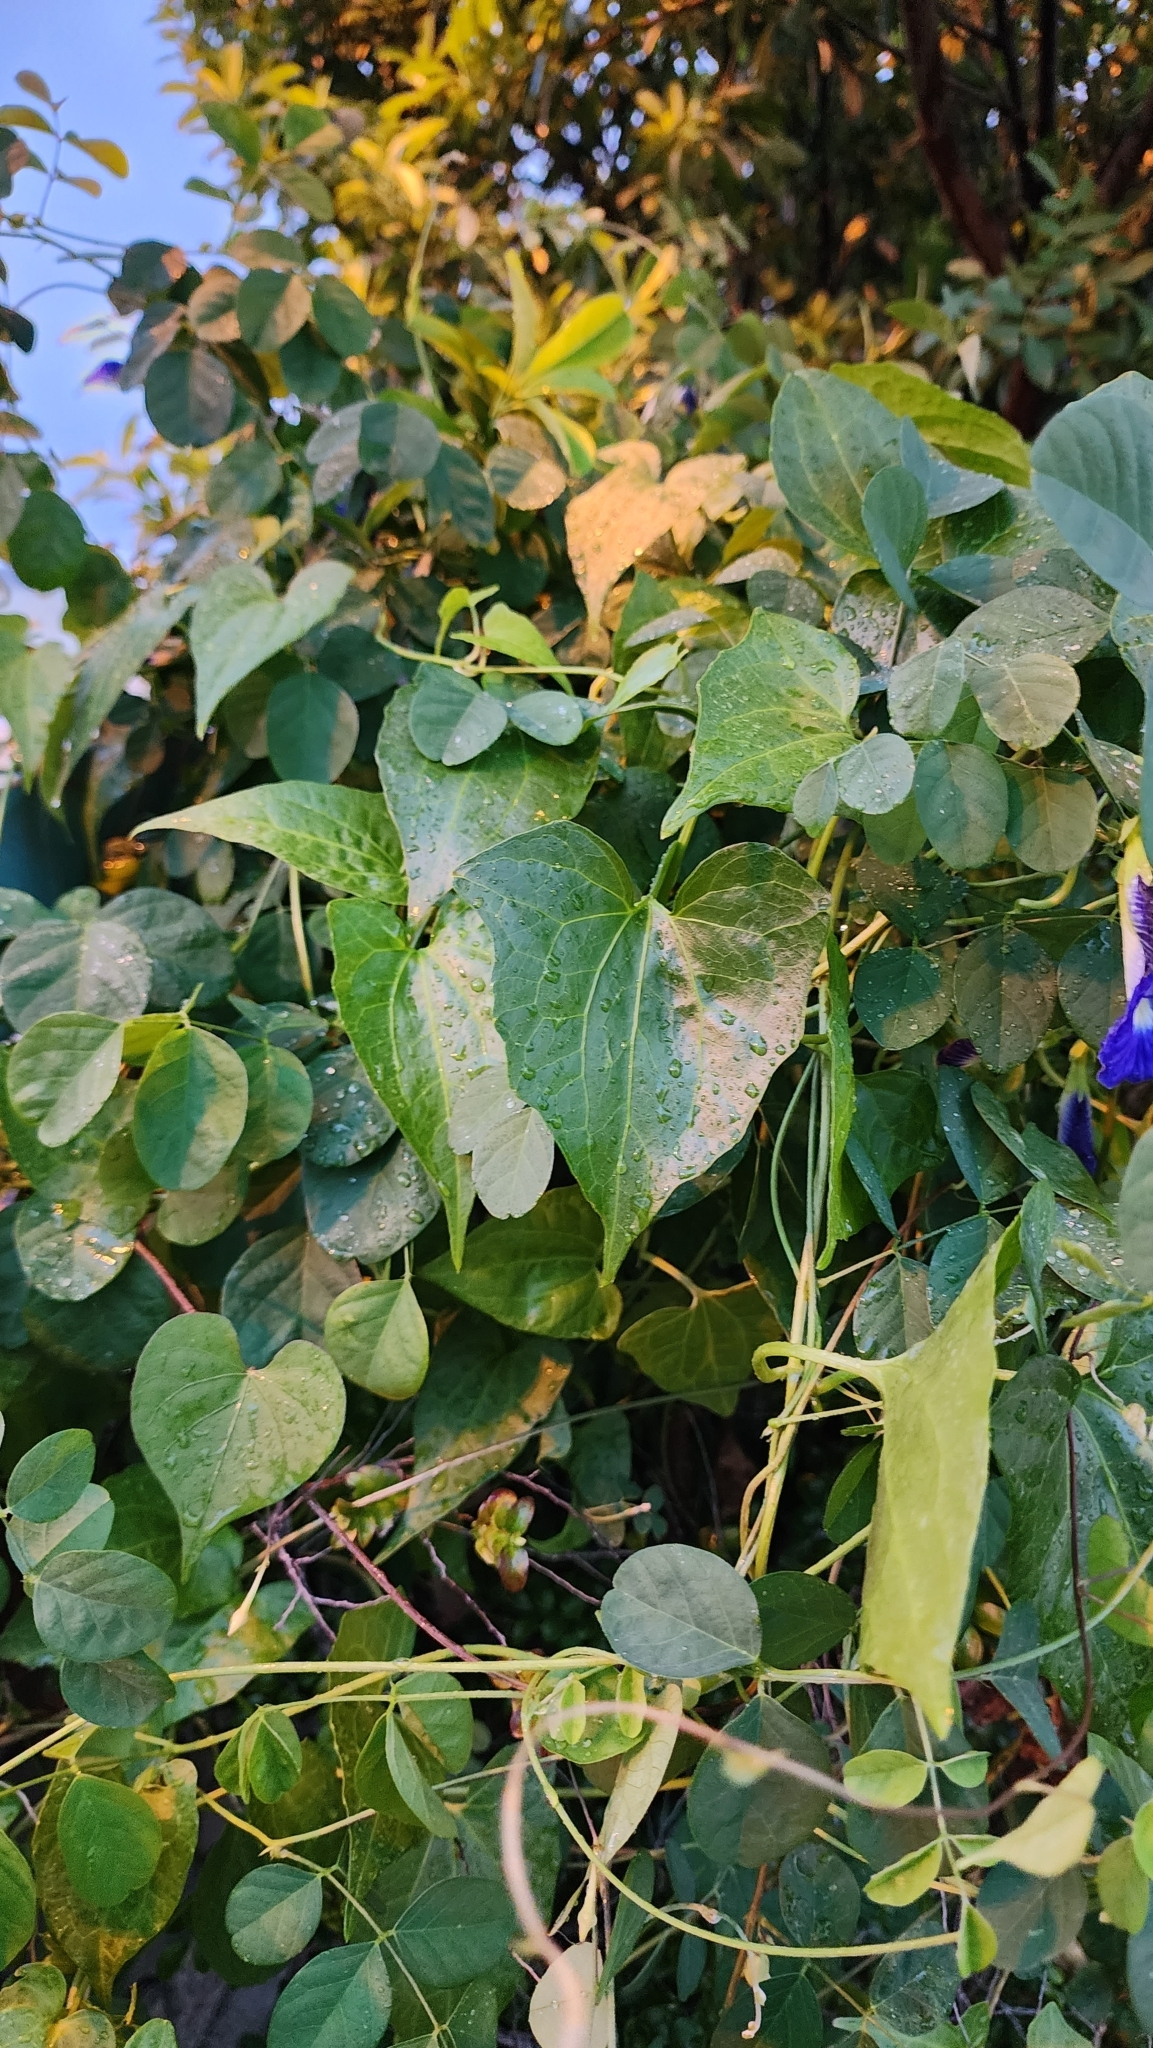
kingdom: Plantae
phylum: Tracheophyta
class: Magnoliopsida
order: Asterales
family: Asteraceae
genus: Mikania
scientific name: Mikania micrantha
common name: Mile-a-minute
